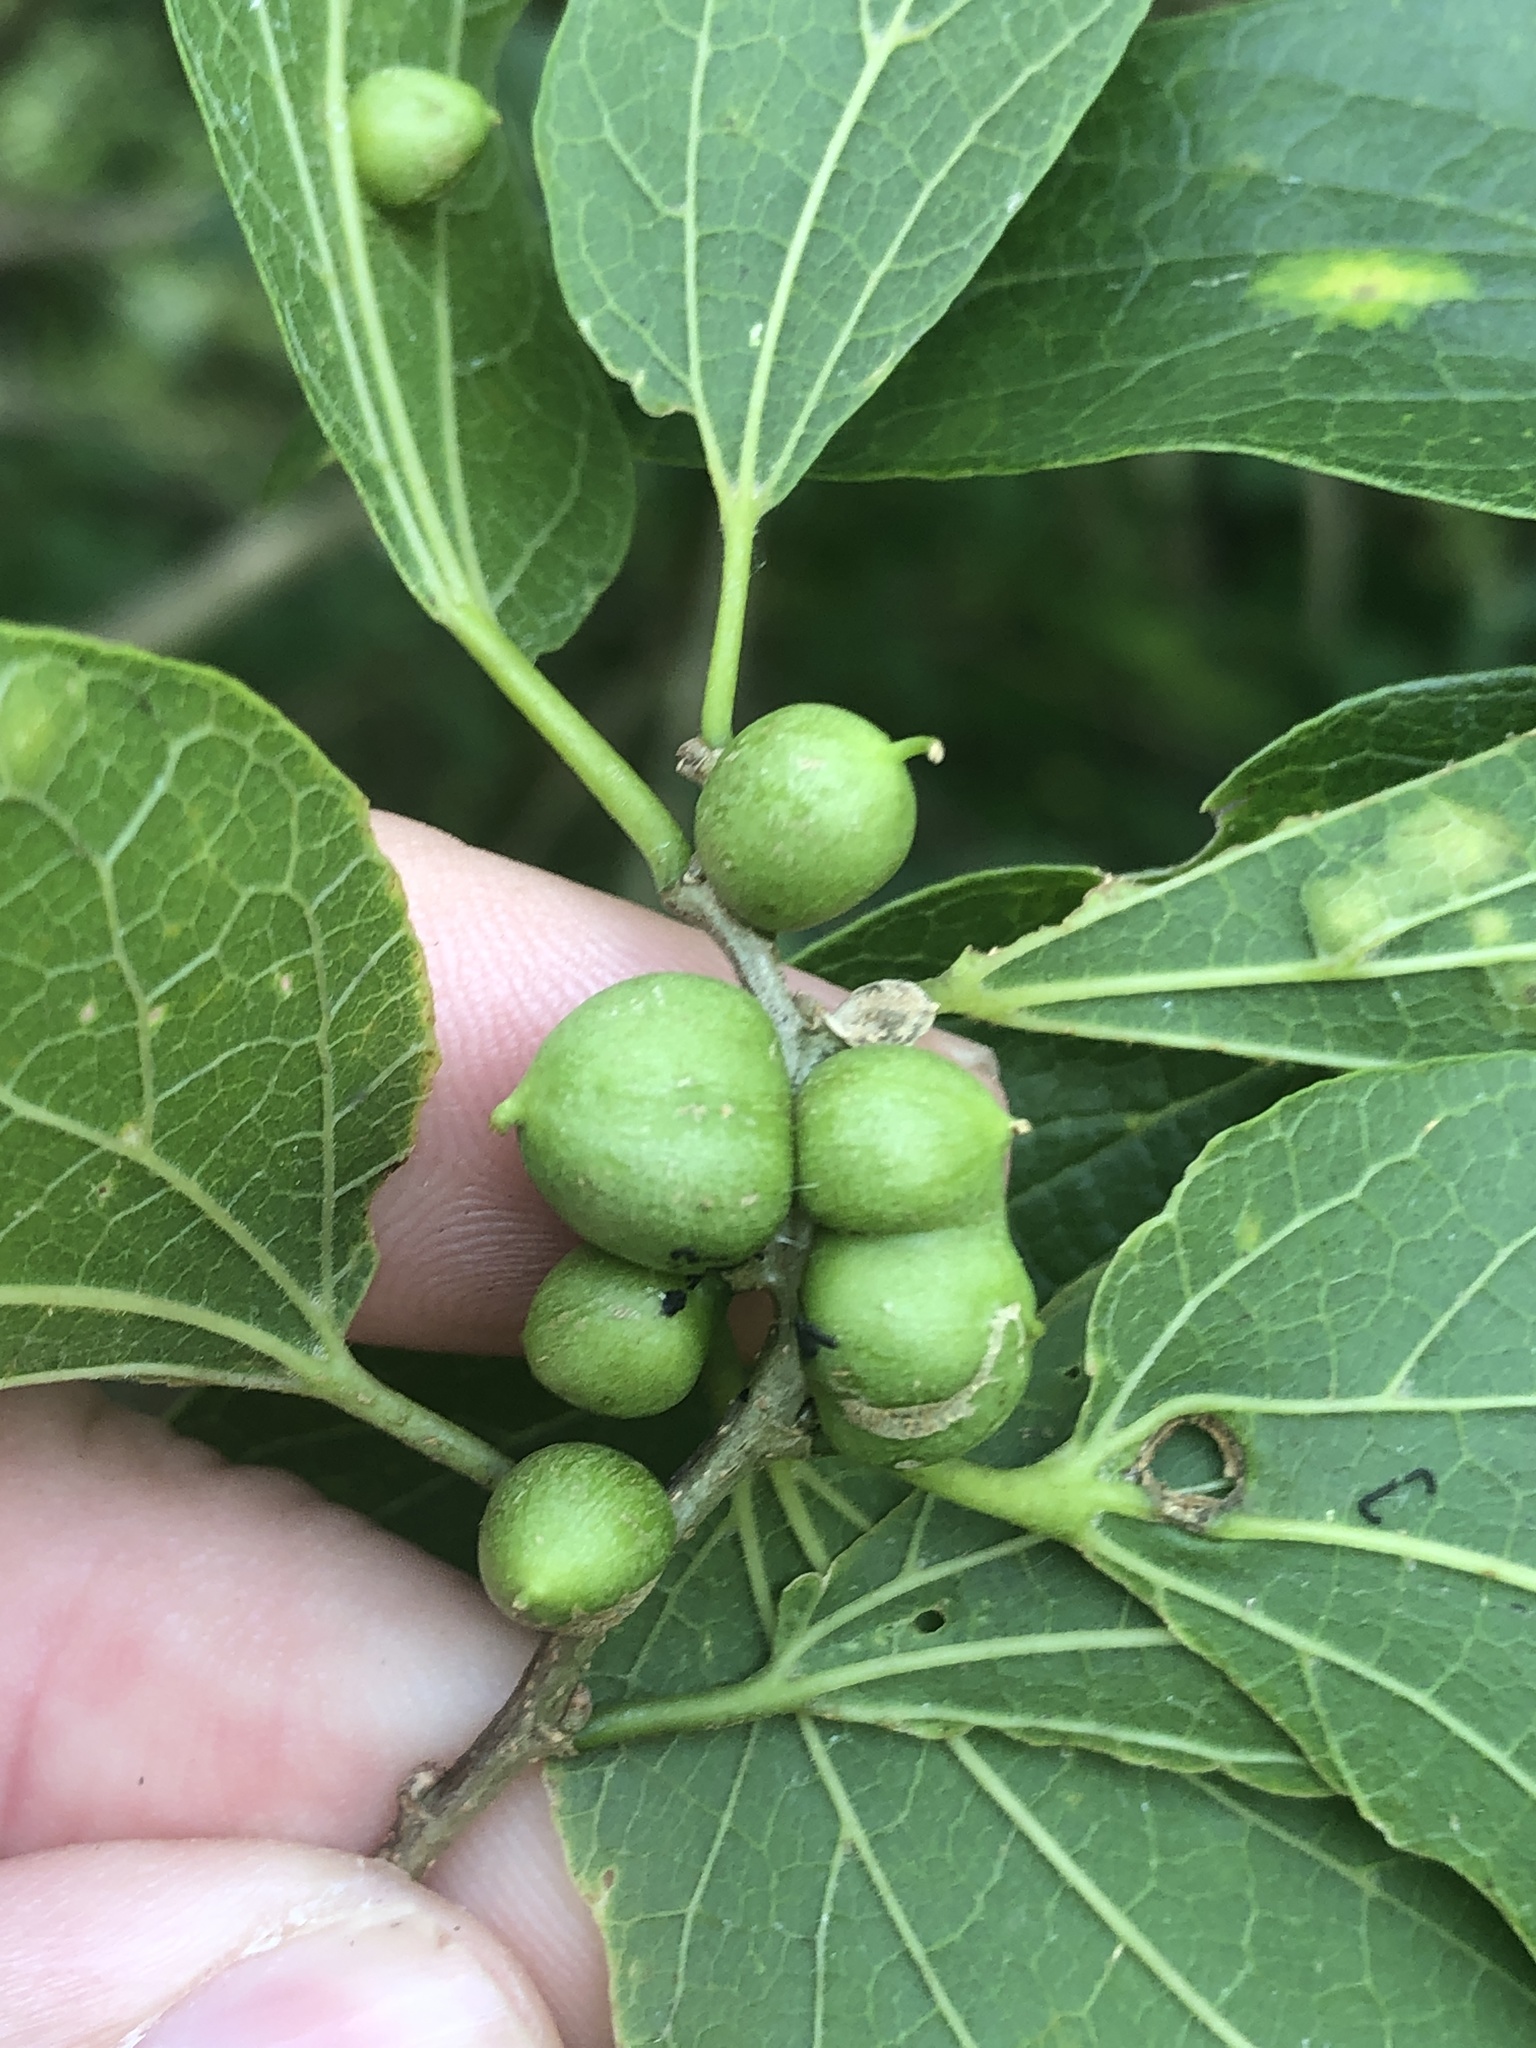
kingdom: Animalia
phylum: Arthropoda
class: Insecta
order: Diptera
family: Cecidomyiidae
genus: Celticecis
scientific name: Celticecis connata
